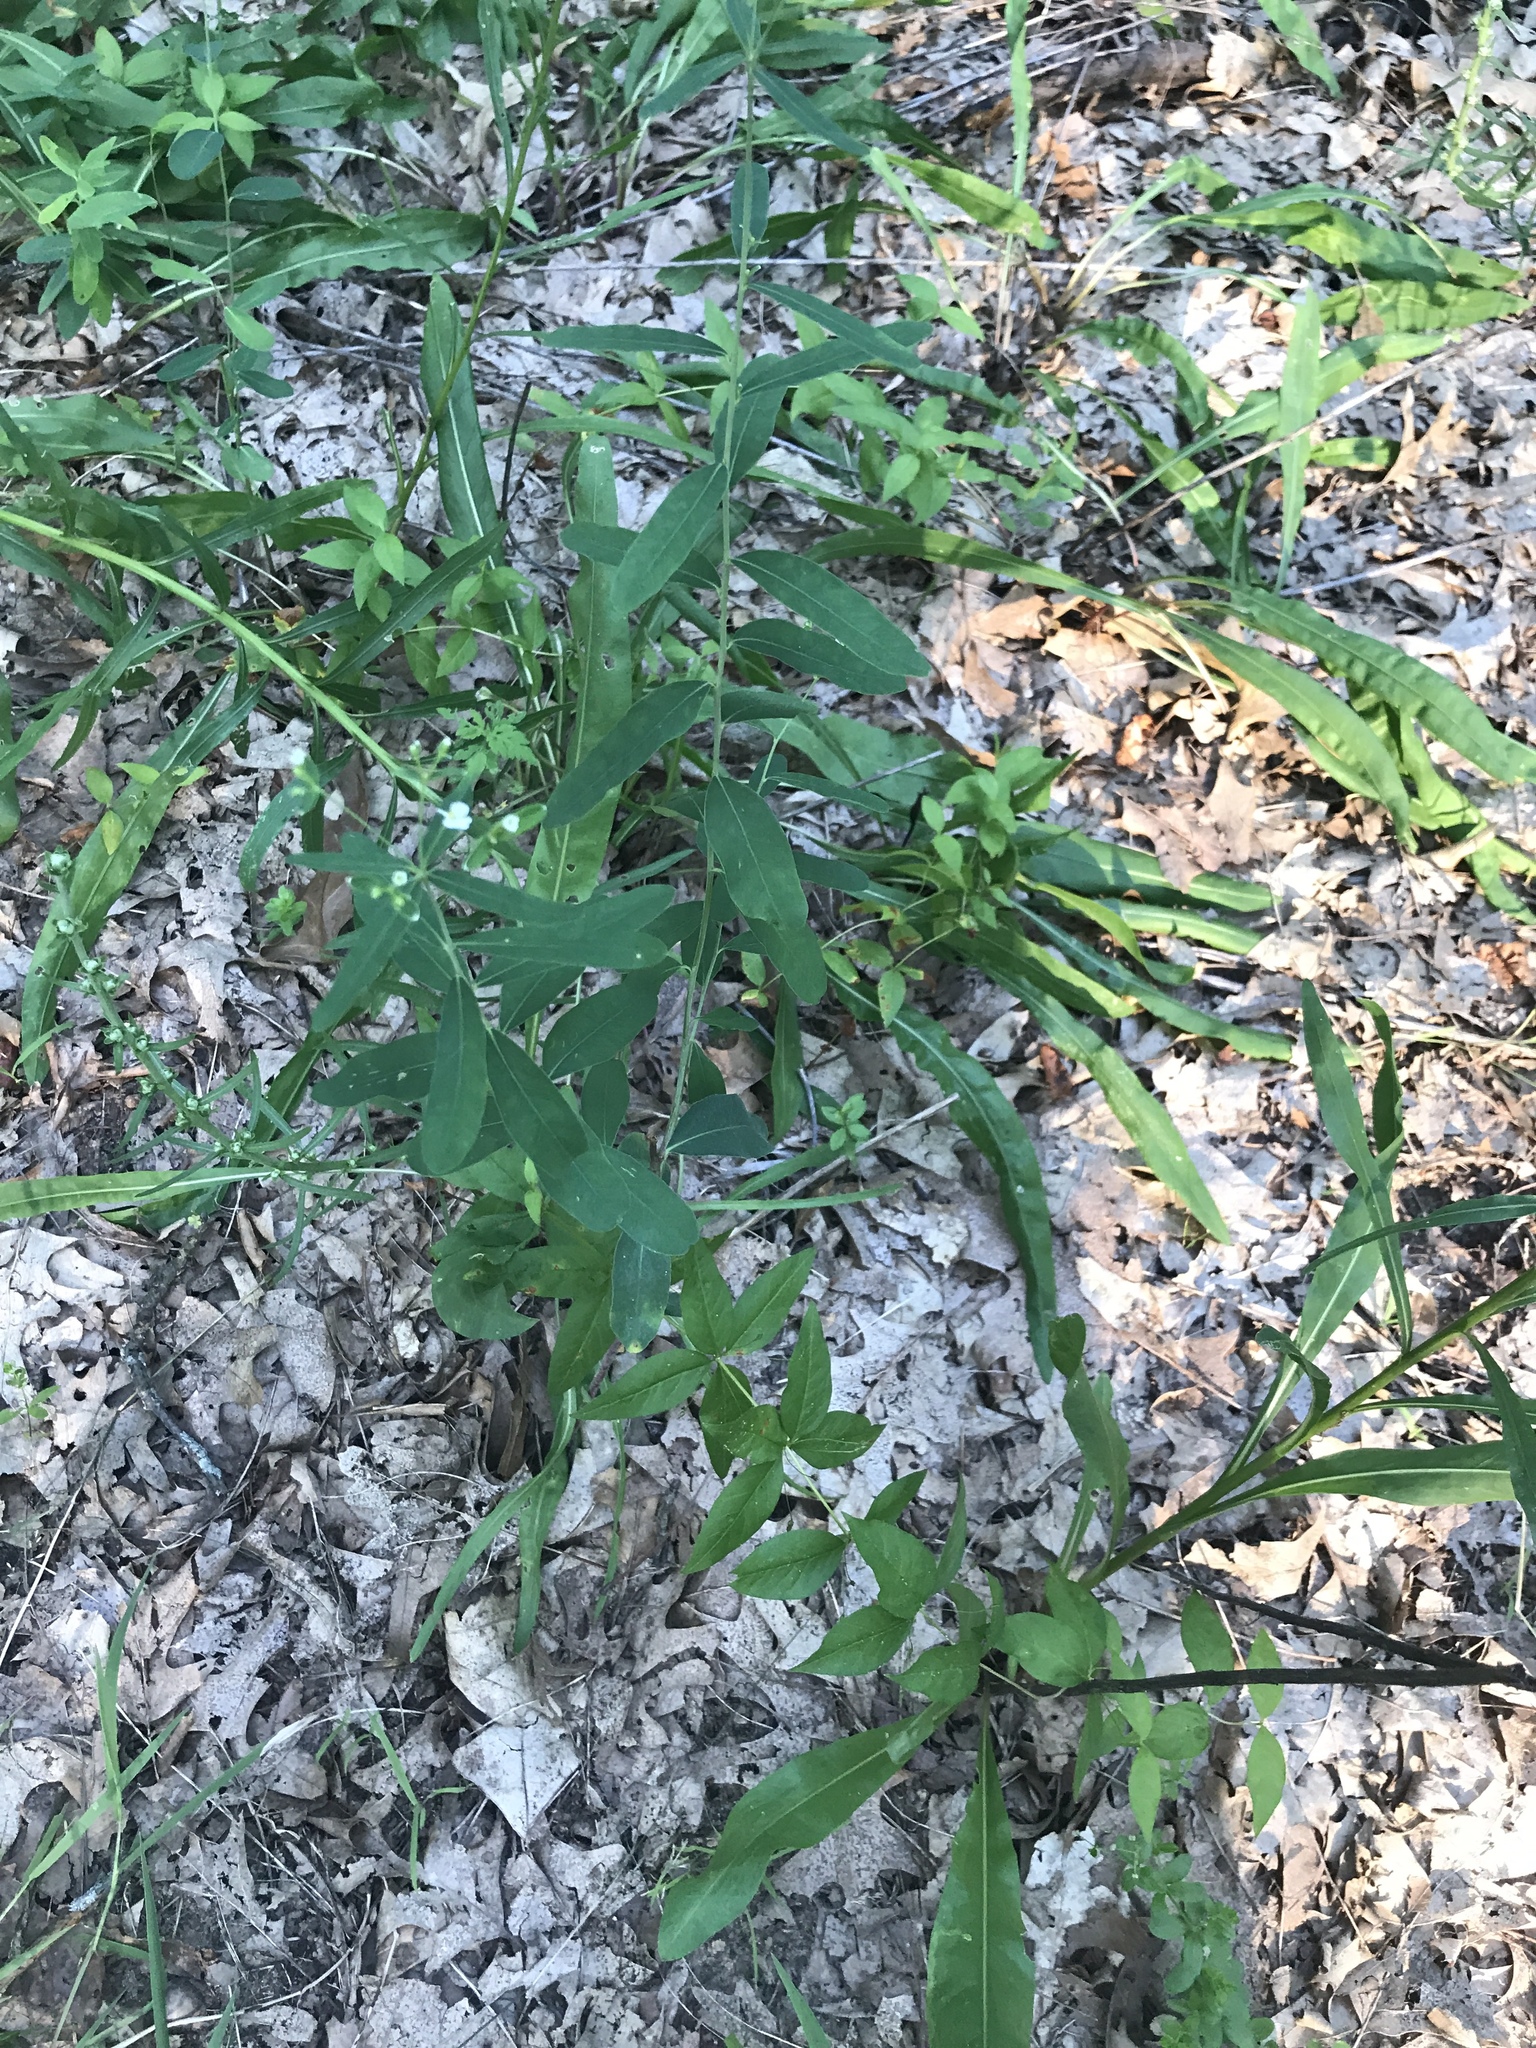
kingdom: Plantae
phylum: Tracheophyta
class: Magnoliopsida
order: Malpighiales
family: Euphorbiaceae
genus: Euphorbia
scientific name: Euphorbia corollata
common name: Flowering spurge
